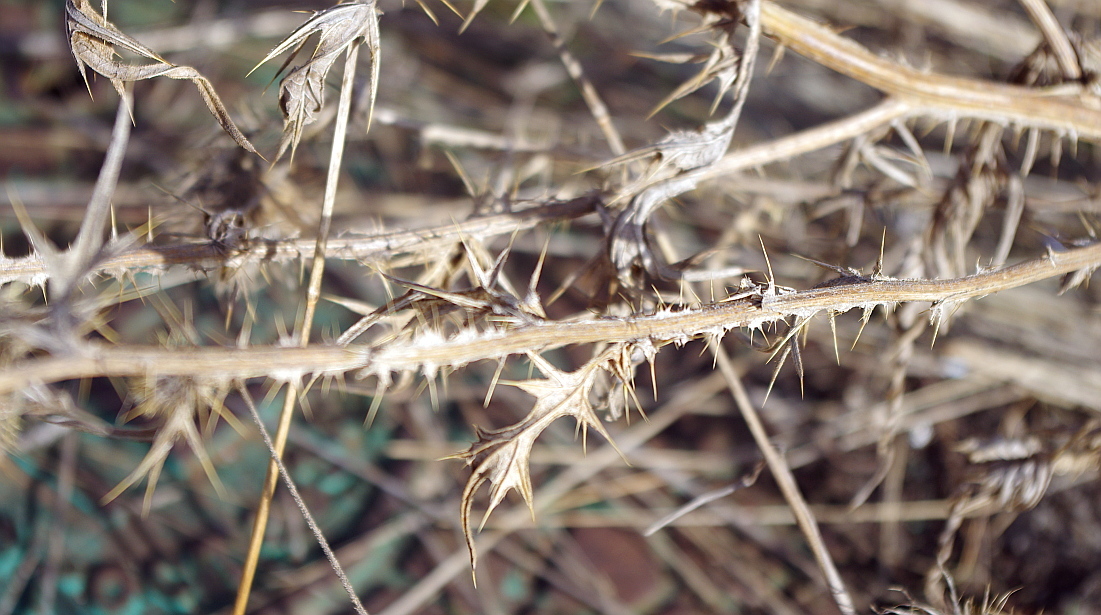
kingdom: Plantae
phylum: Tracheophyta
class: Magnoliopsida
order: Asterales
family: Asteraceae
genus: Cirsium
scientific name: Cirsium vulgare
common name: Bull thistle
